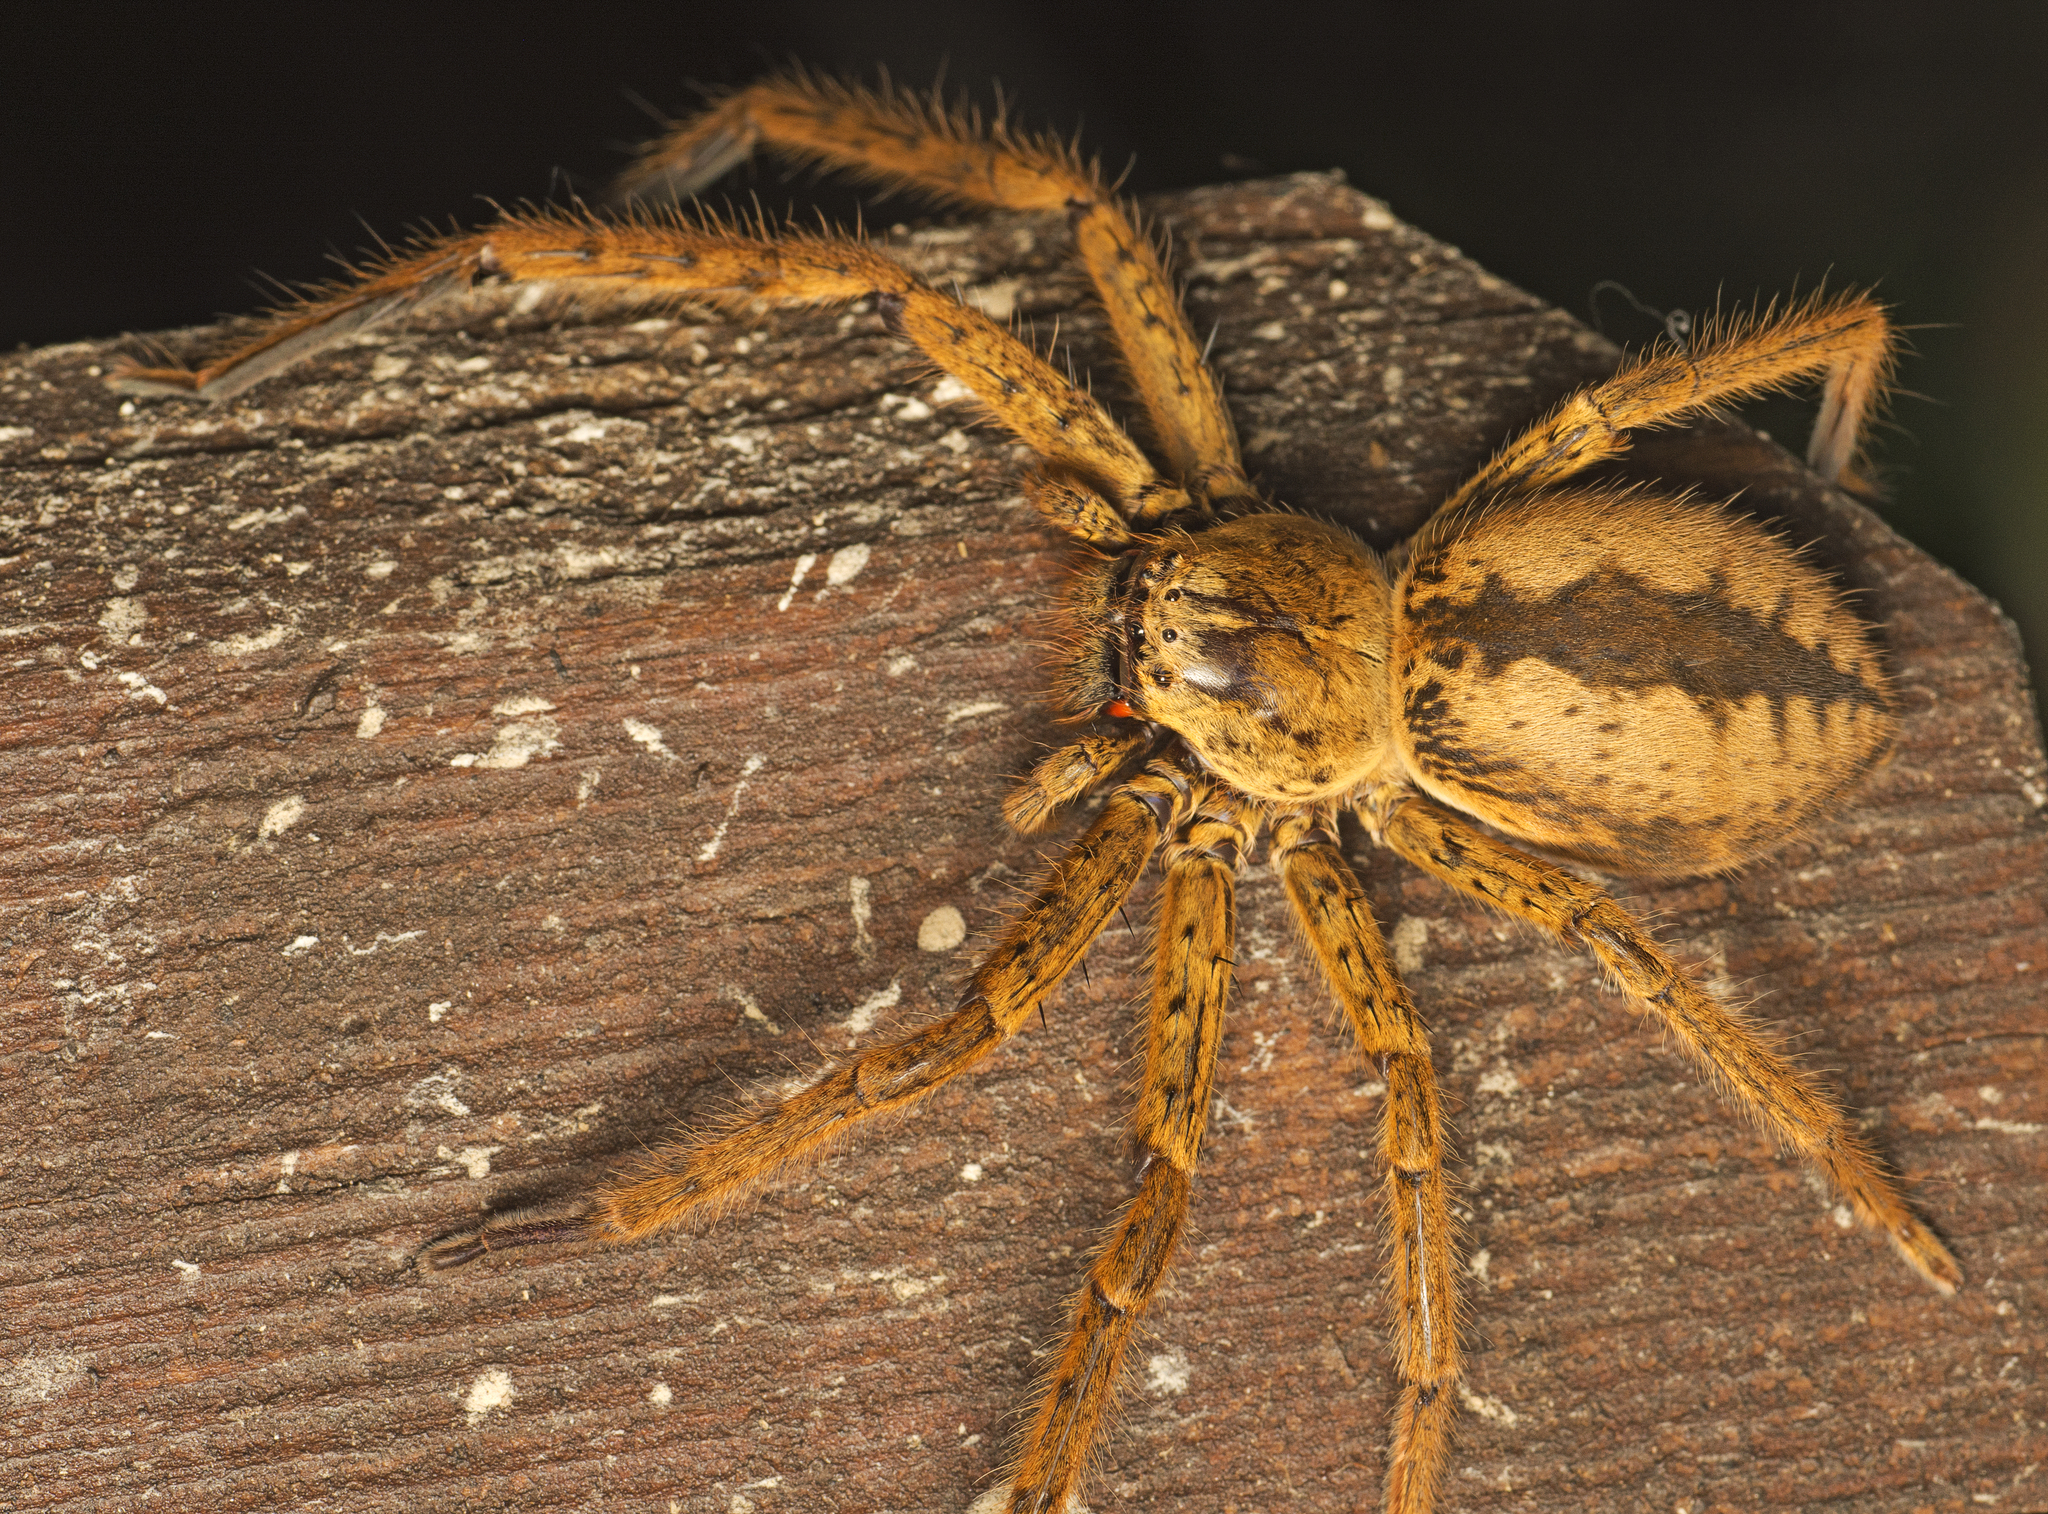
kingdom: Animalia
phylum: Arthropoda
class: Arachnida
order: Araneae
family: Sparassidae
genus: Beregama
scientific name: Beregama cordata
